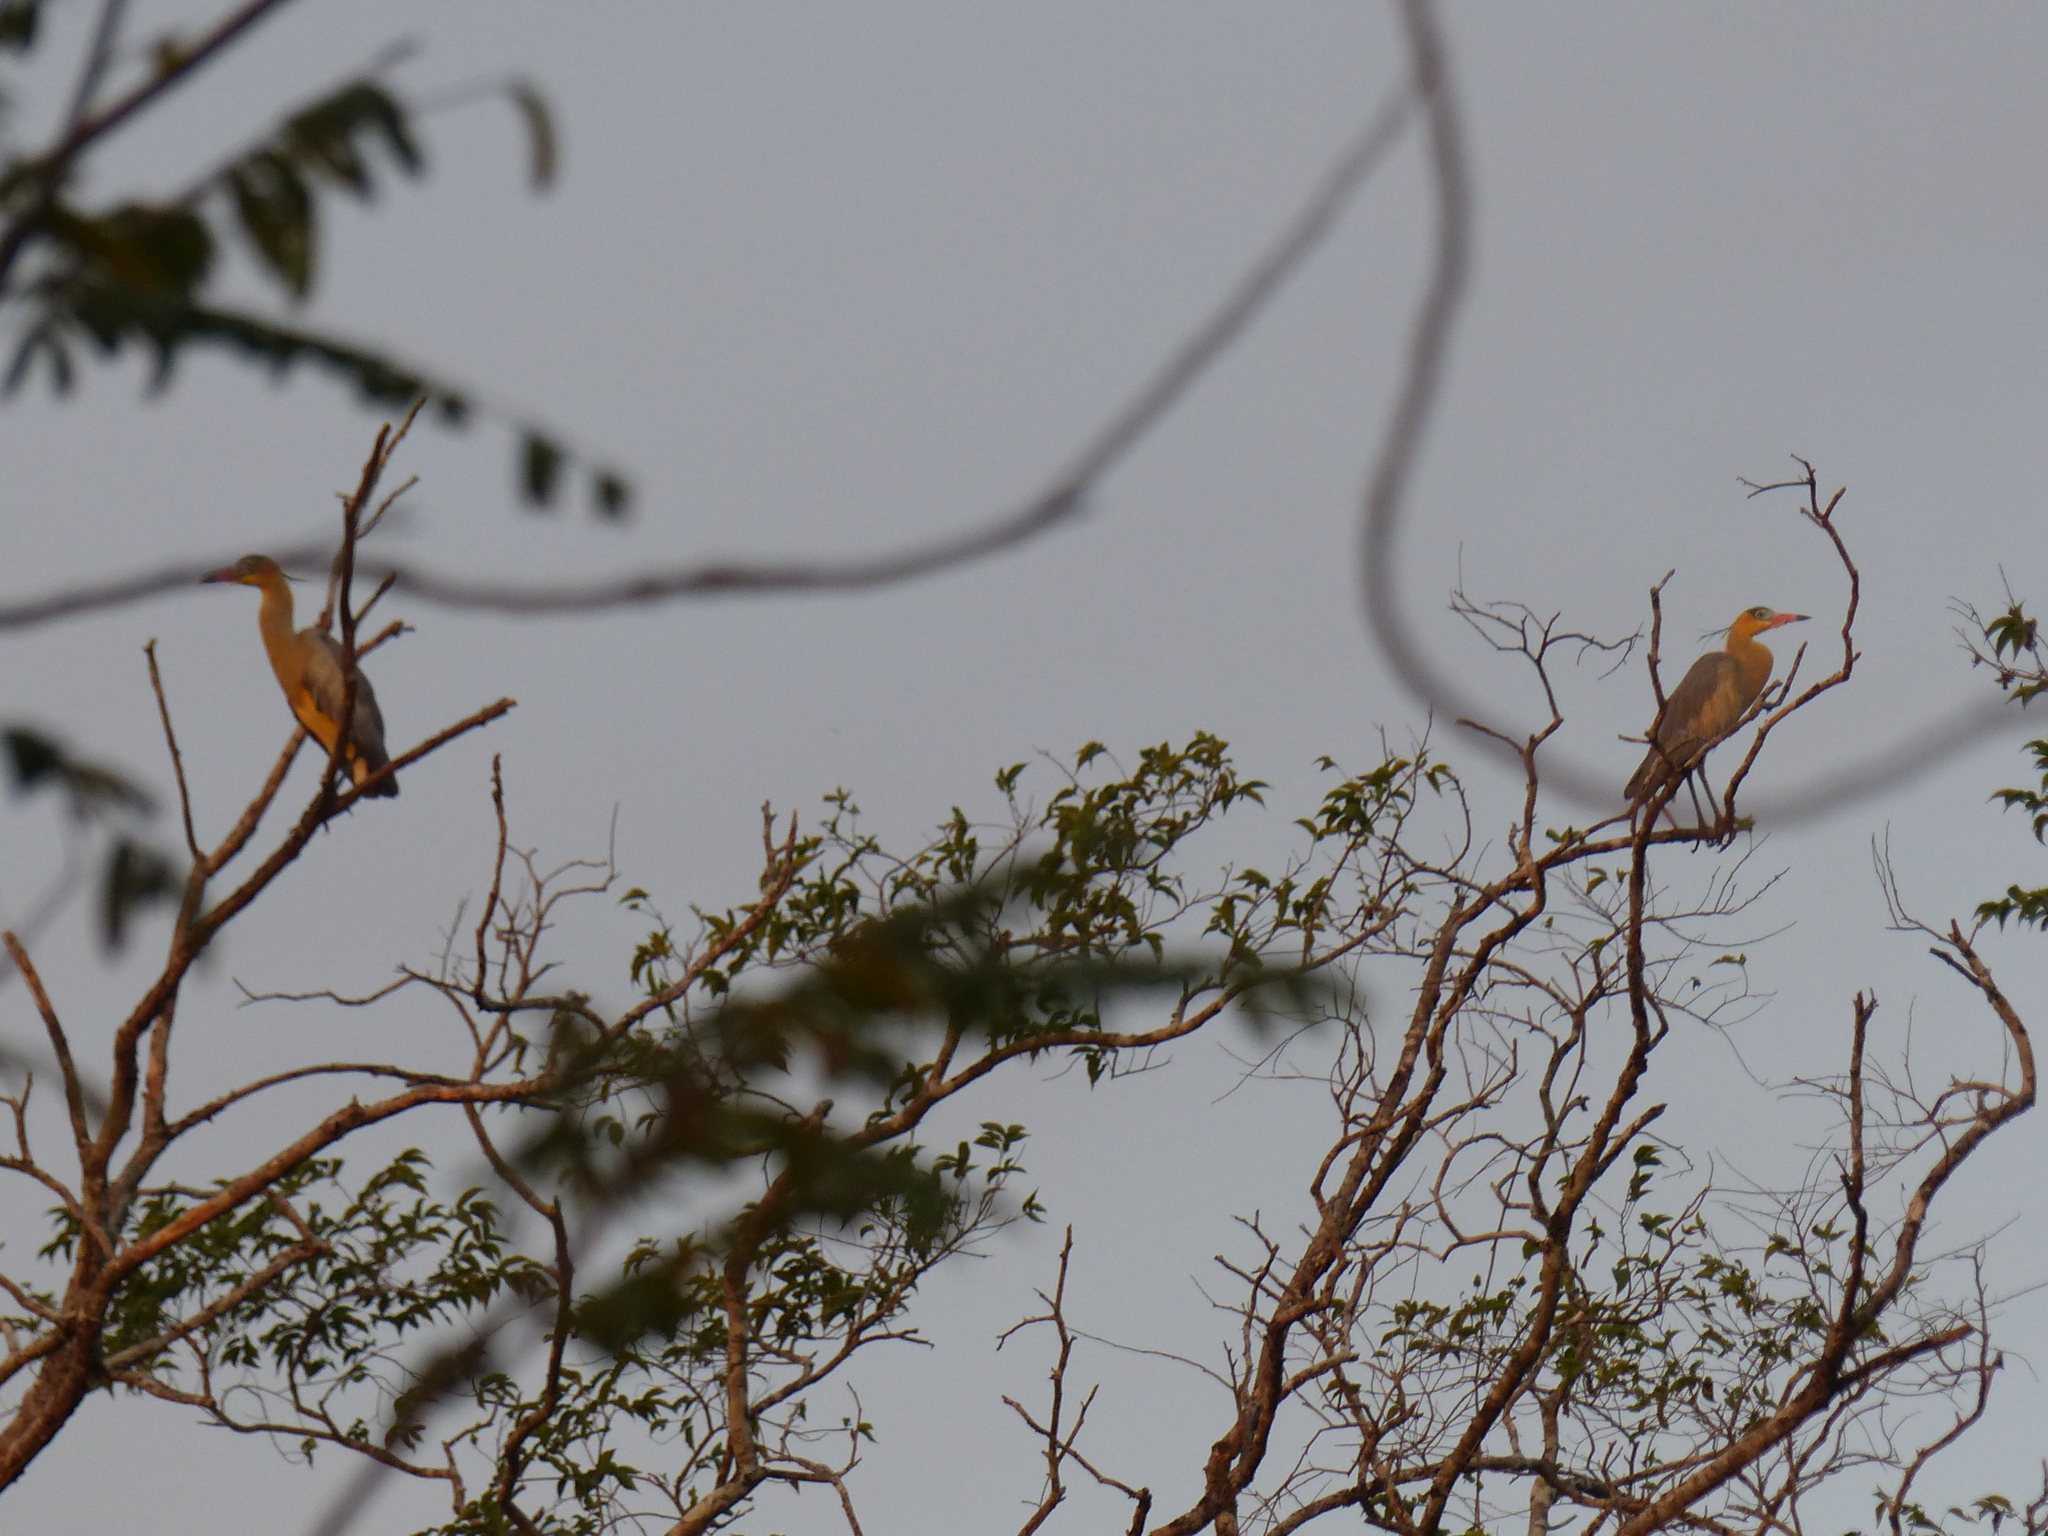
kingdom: Animalia
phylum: Chordata
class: Aves
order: Pelecaniformes
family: Ardeidae
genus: Syrigma
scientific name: Syrigma sibilatrix
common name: Whistling heron
